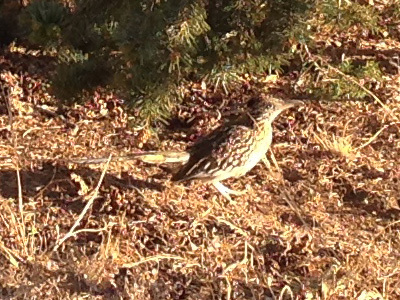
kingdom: Animalia
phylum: Chordata
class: Aves
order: Cuculiformes
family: Cuculidae
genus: Geococcyx
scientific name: Geococcyx californianus
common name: Greater roadrunner
